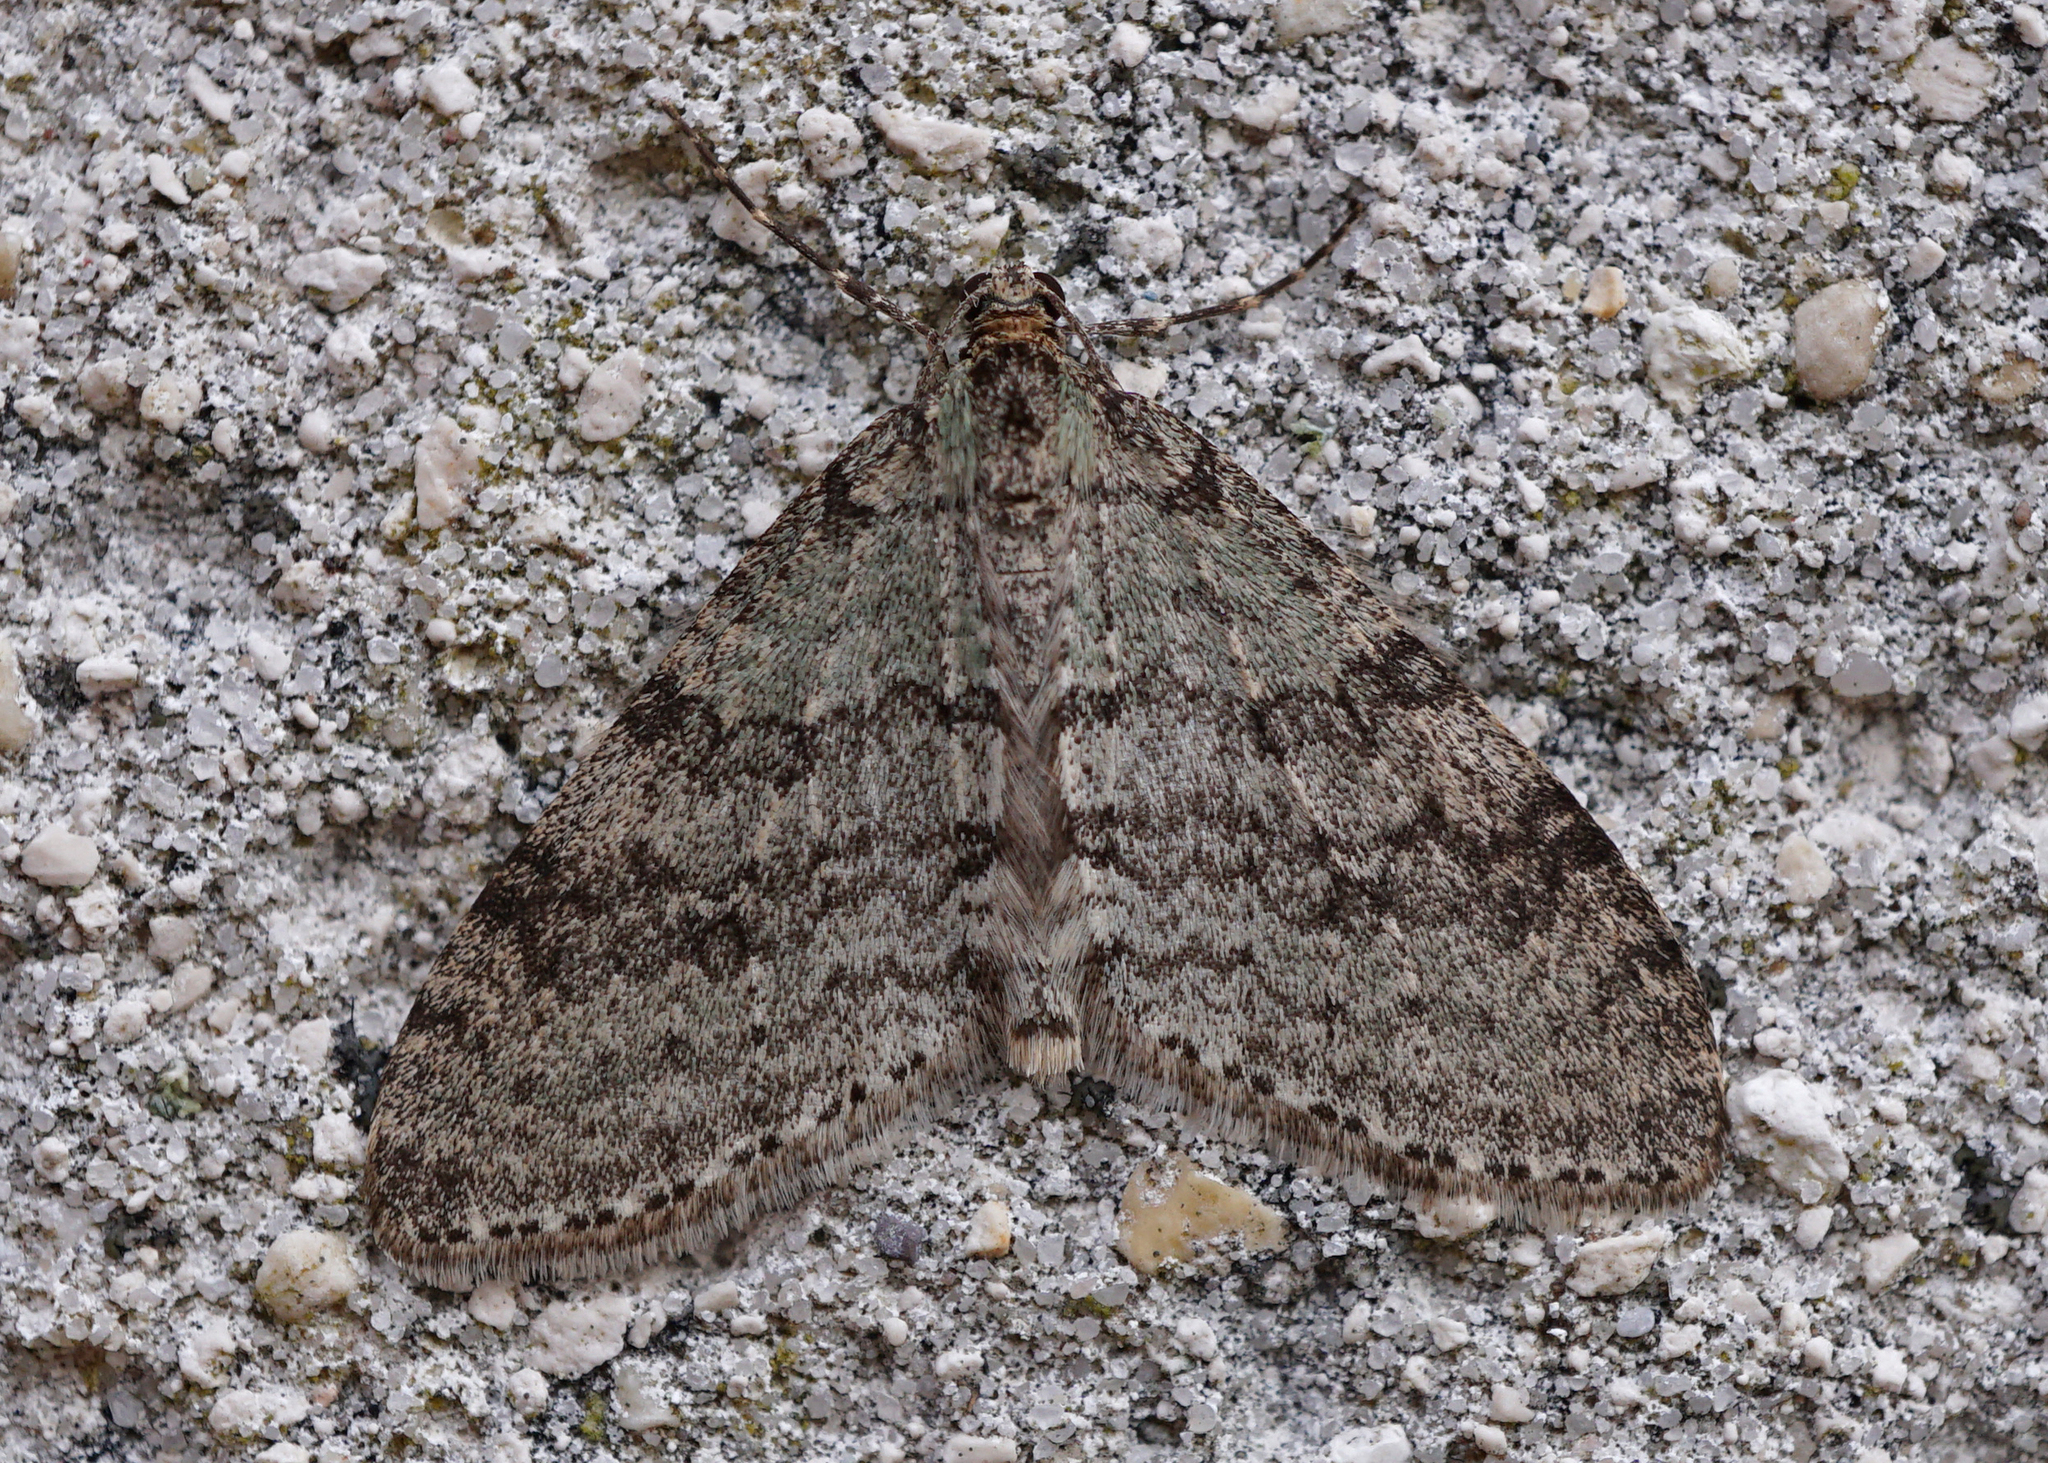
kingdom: Animalia
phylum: Arthropoda
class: Insecta
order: Lepidoptera
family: Geometridae
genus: Trichopteryx
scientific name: Trichopteryx carpinata
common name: Early tooth-striped
